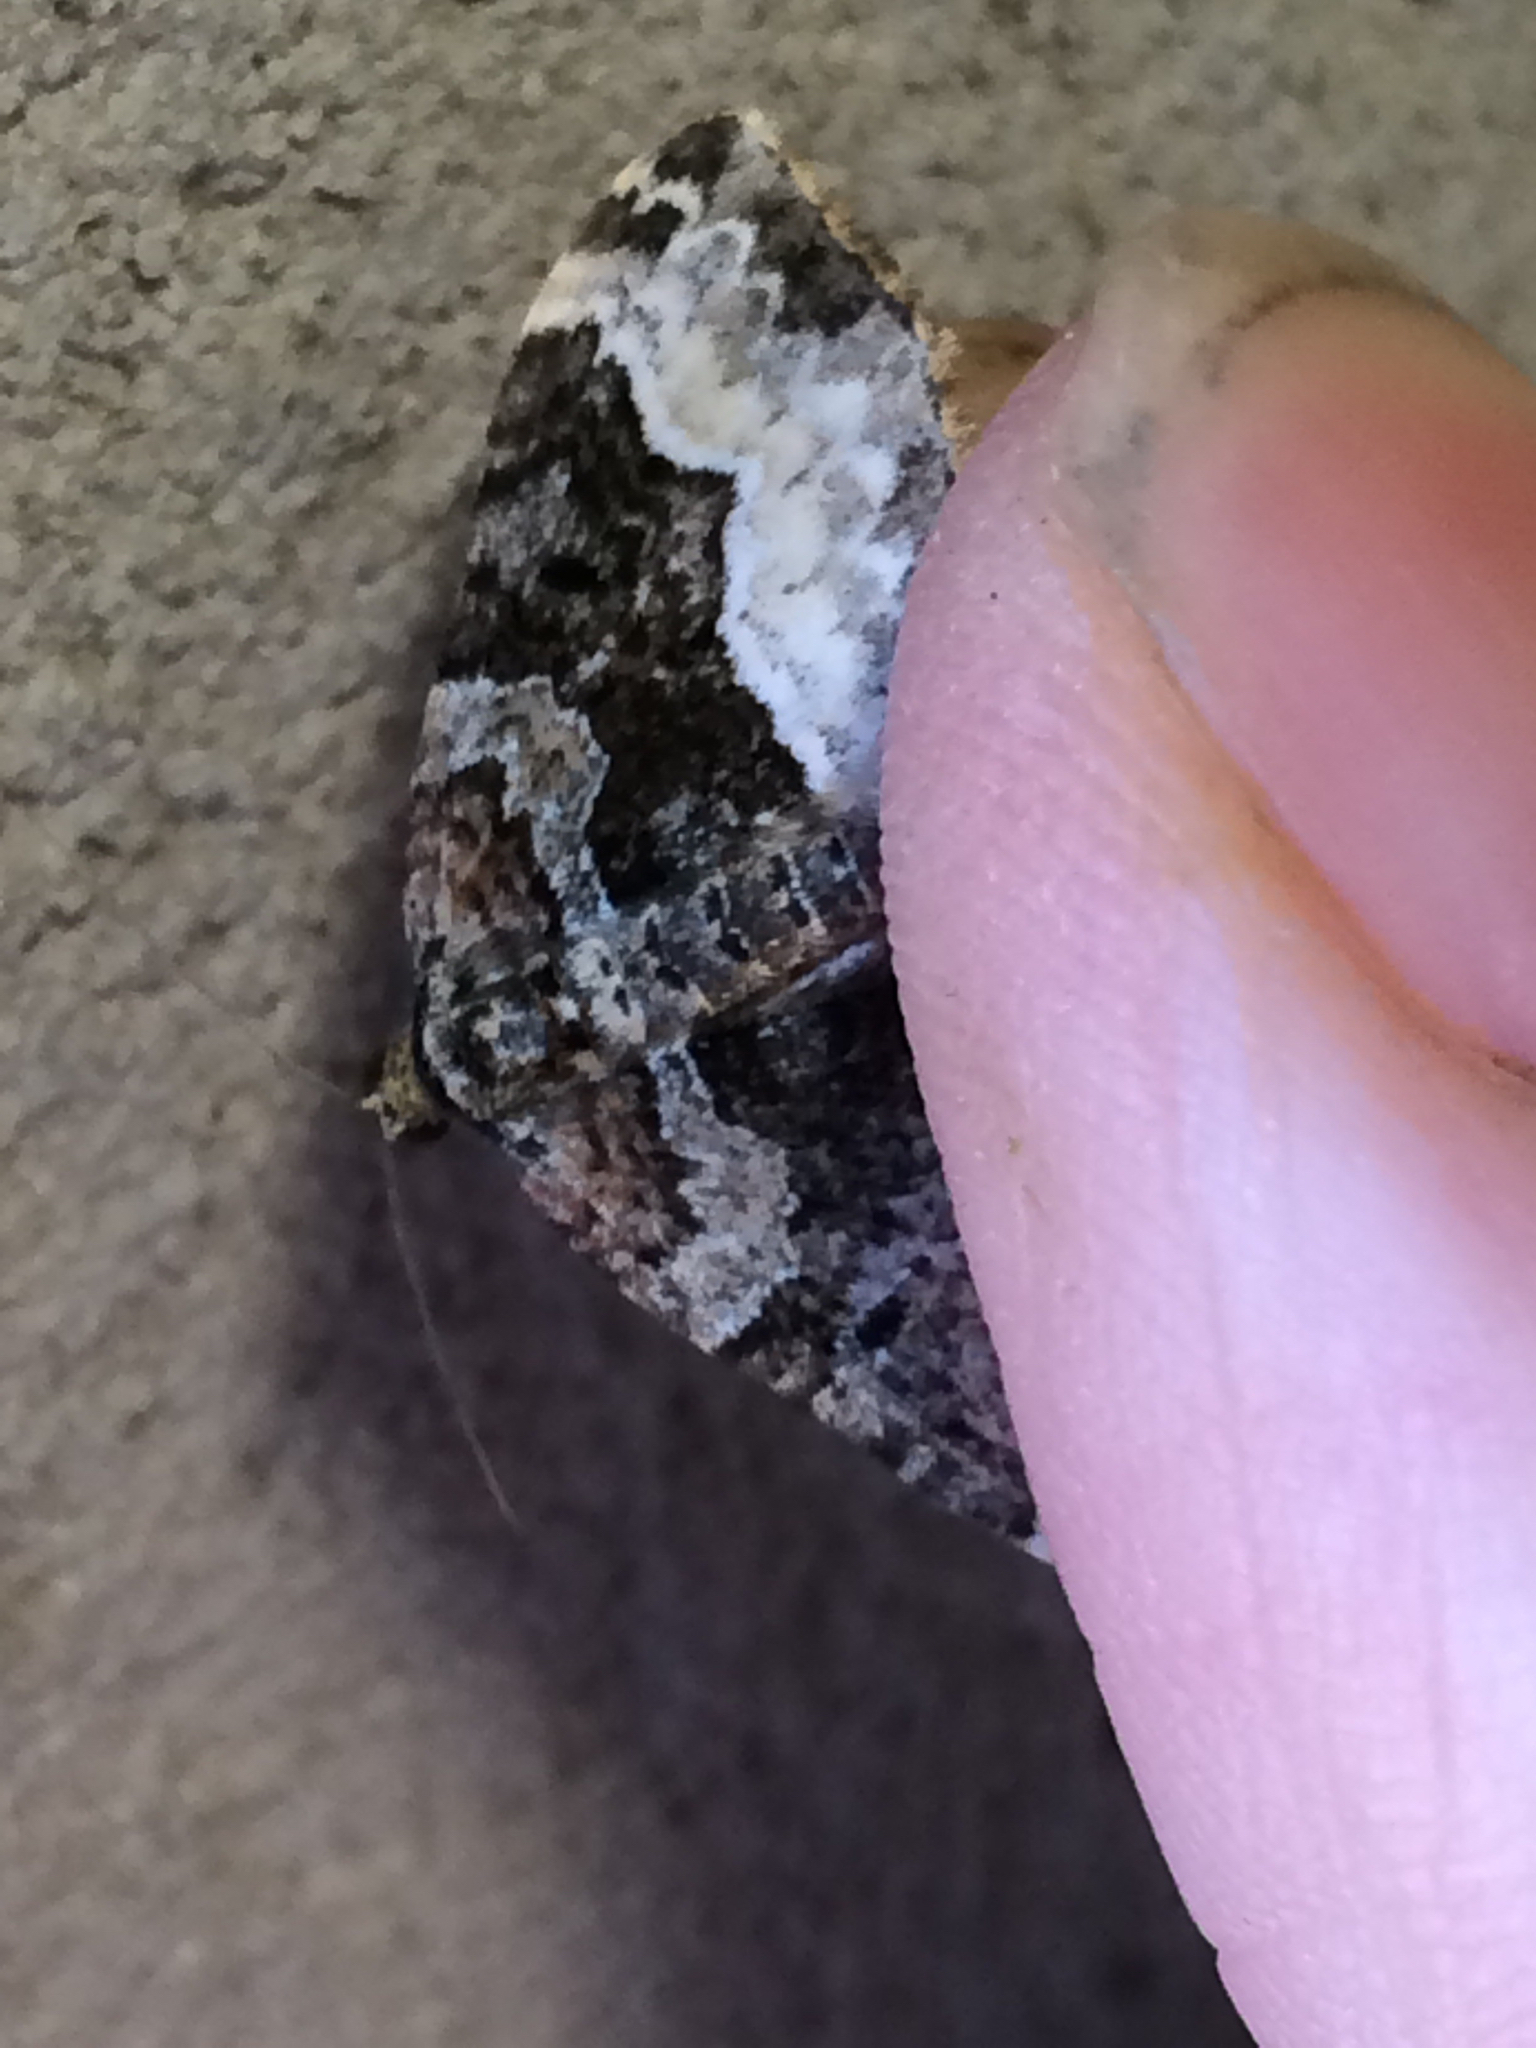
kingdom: Animalia
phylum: Arthropoda
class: Insecta
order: Lepidoptera
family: Geometridae
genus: Euphyia
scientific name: Euphyia intermediata
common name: Sharp-angled carpet
